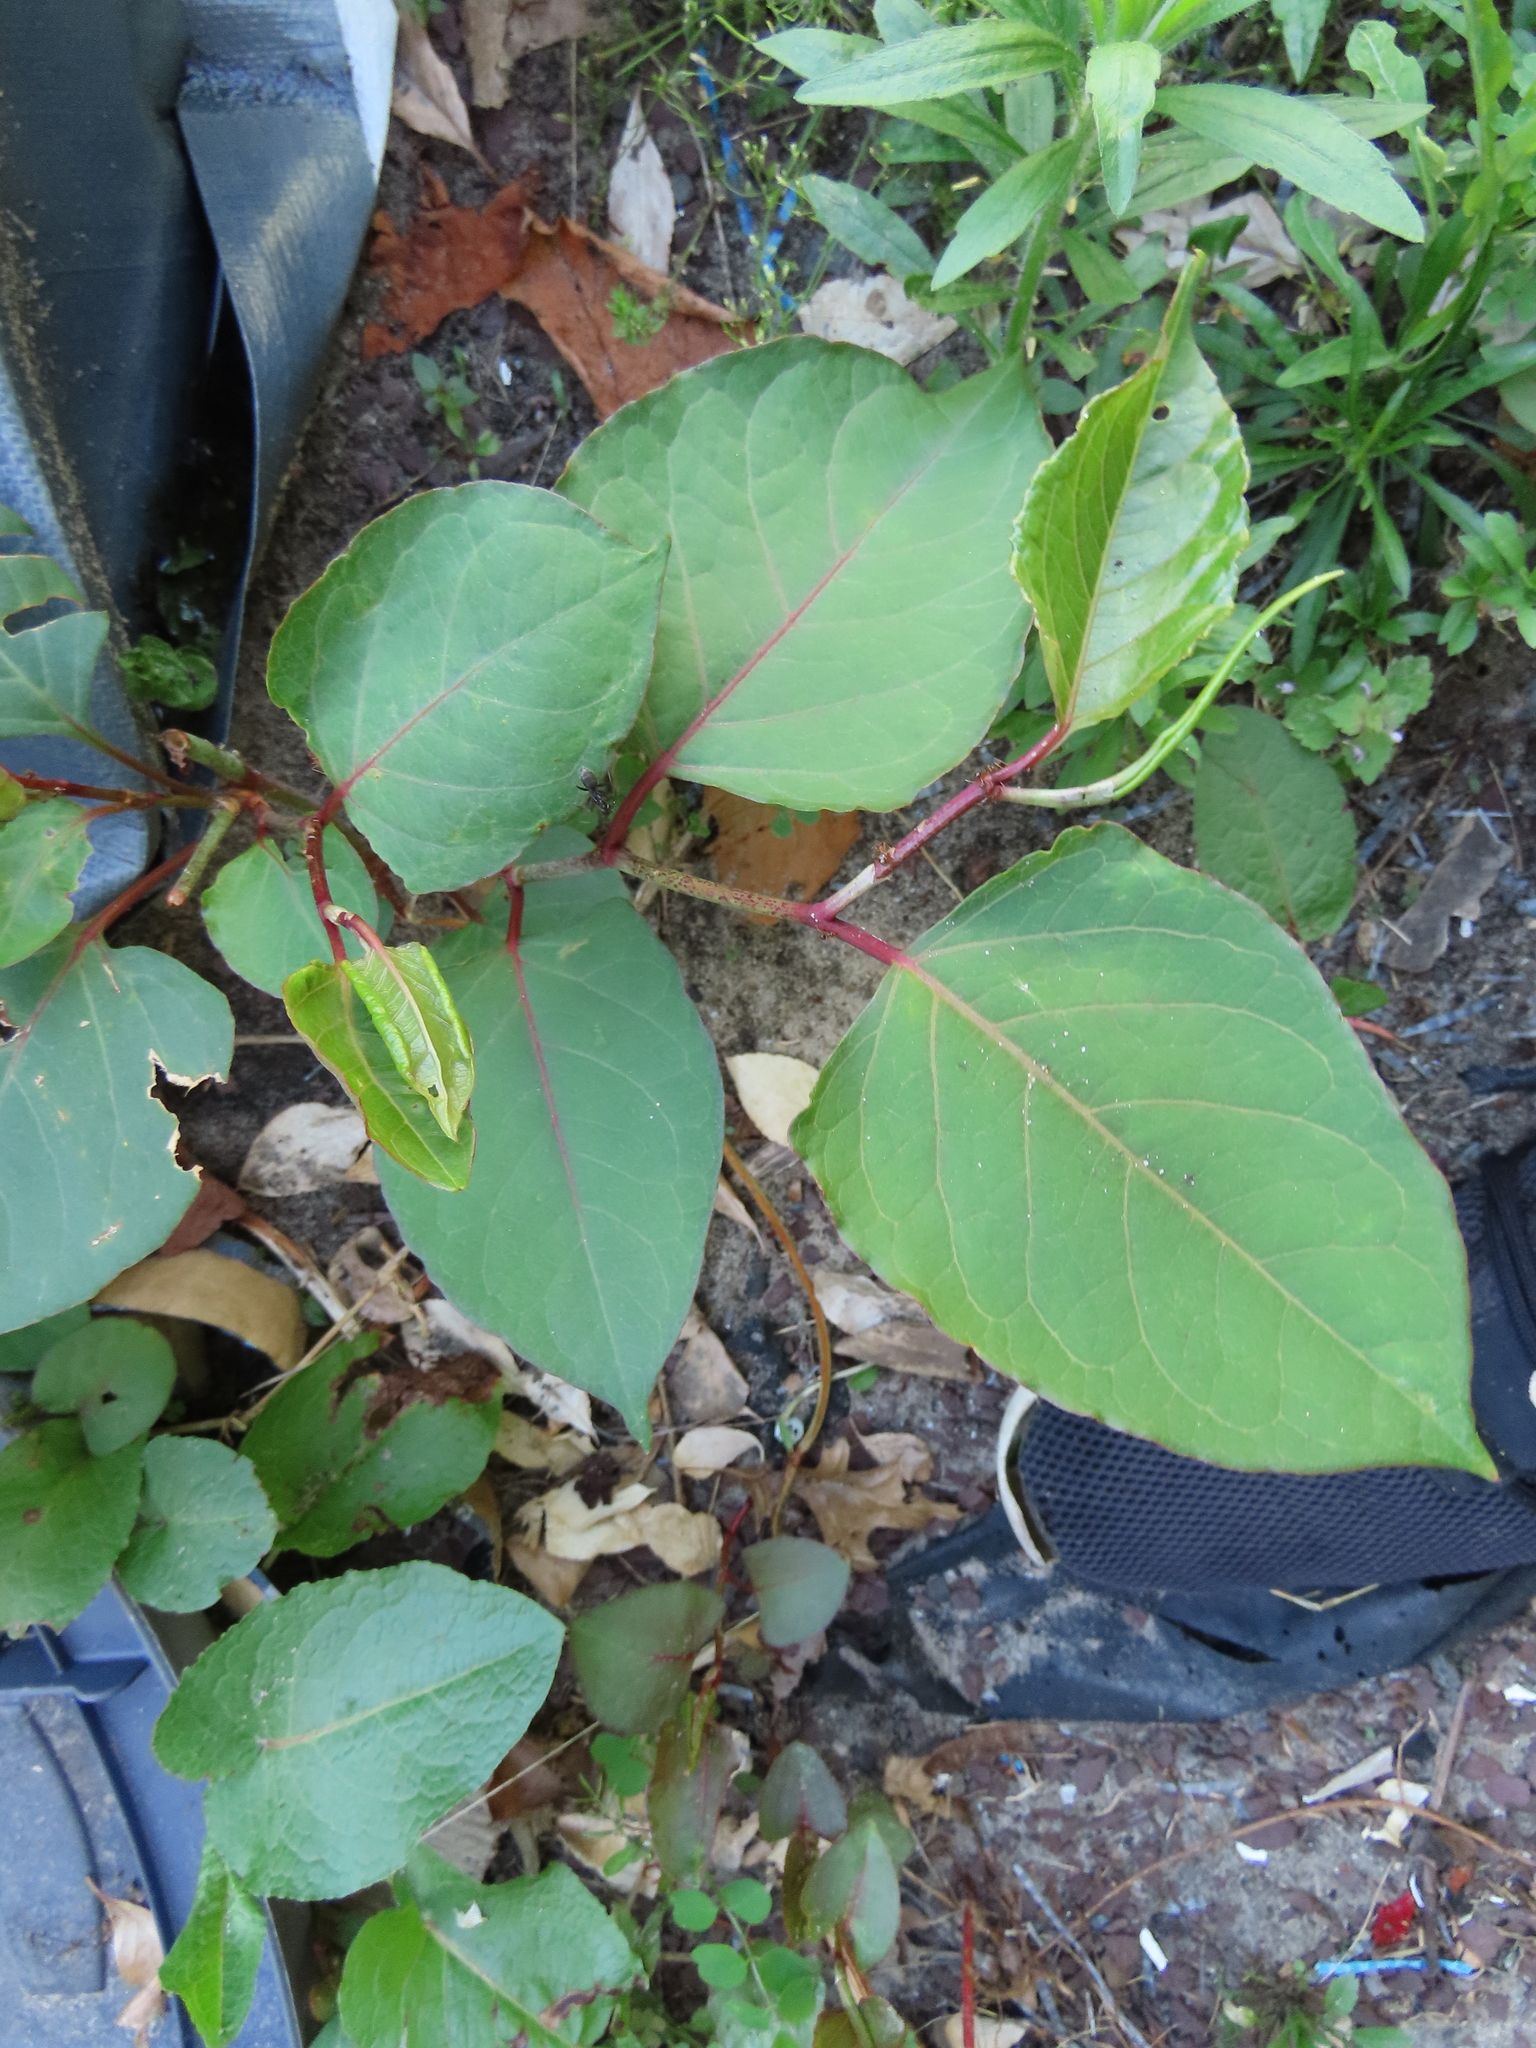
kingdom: Plantae
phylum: Tracheophyta
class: Magnoliopsida
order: Caryophyllales
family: Polygonaceae
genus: Reynoutria
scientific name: Reynoutria japonica
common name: Japanese knotweed
